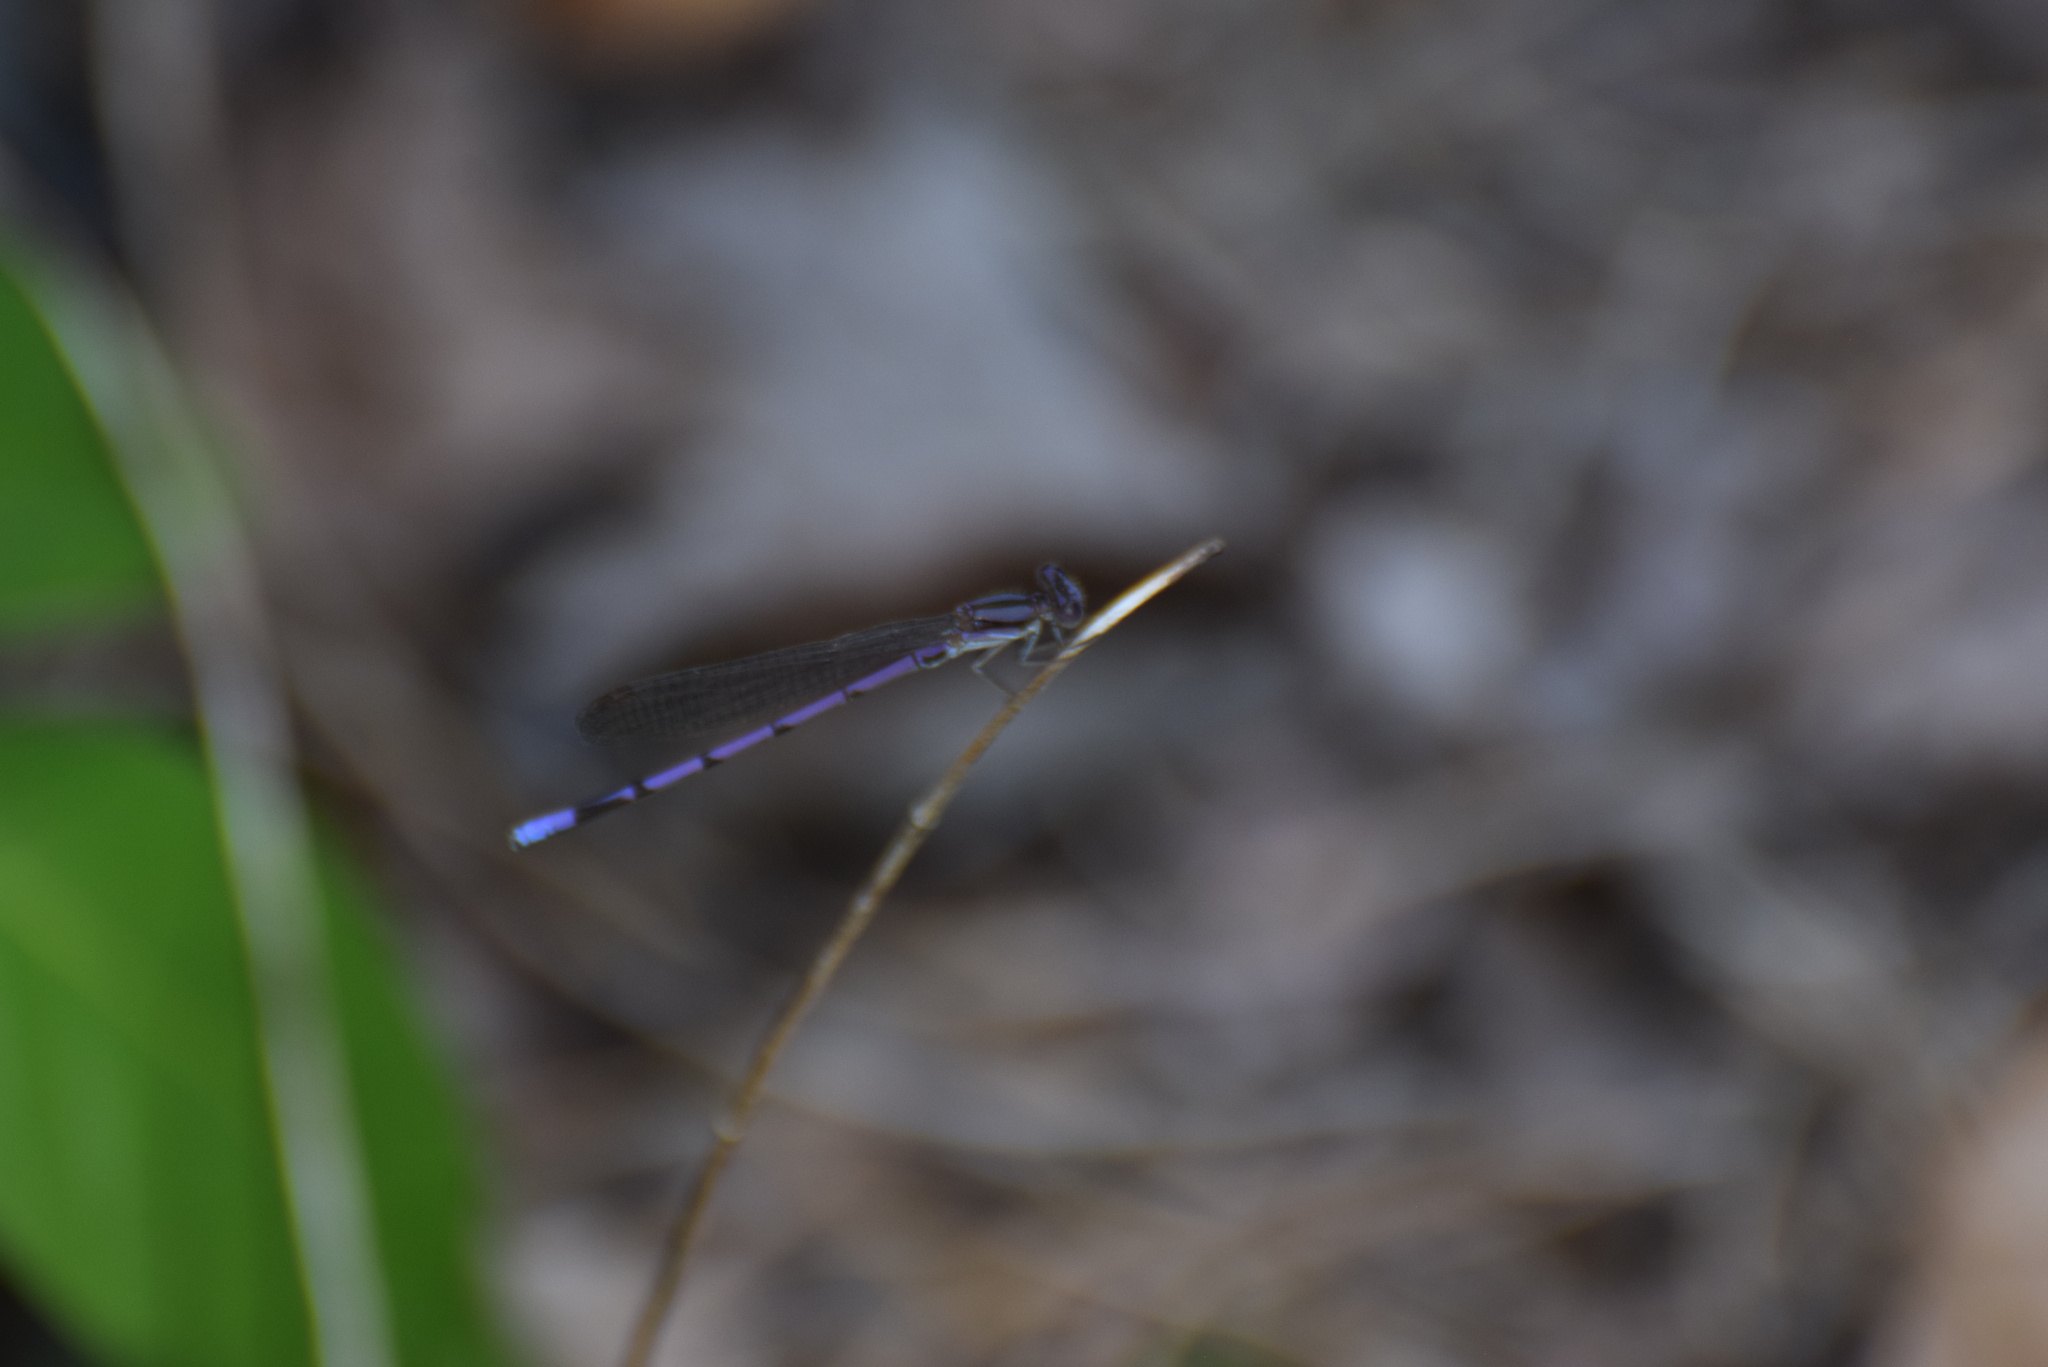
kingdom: Animalia
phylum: Arthropoda
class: Insecta
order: Odonata
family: Coenagrionidae
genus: Argia
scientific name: Argia fumipennis
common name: Variable dancer
